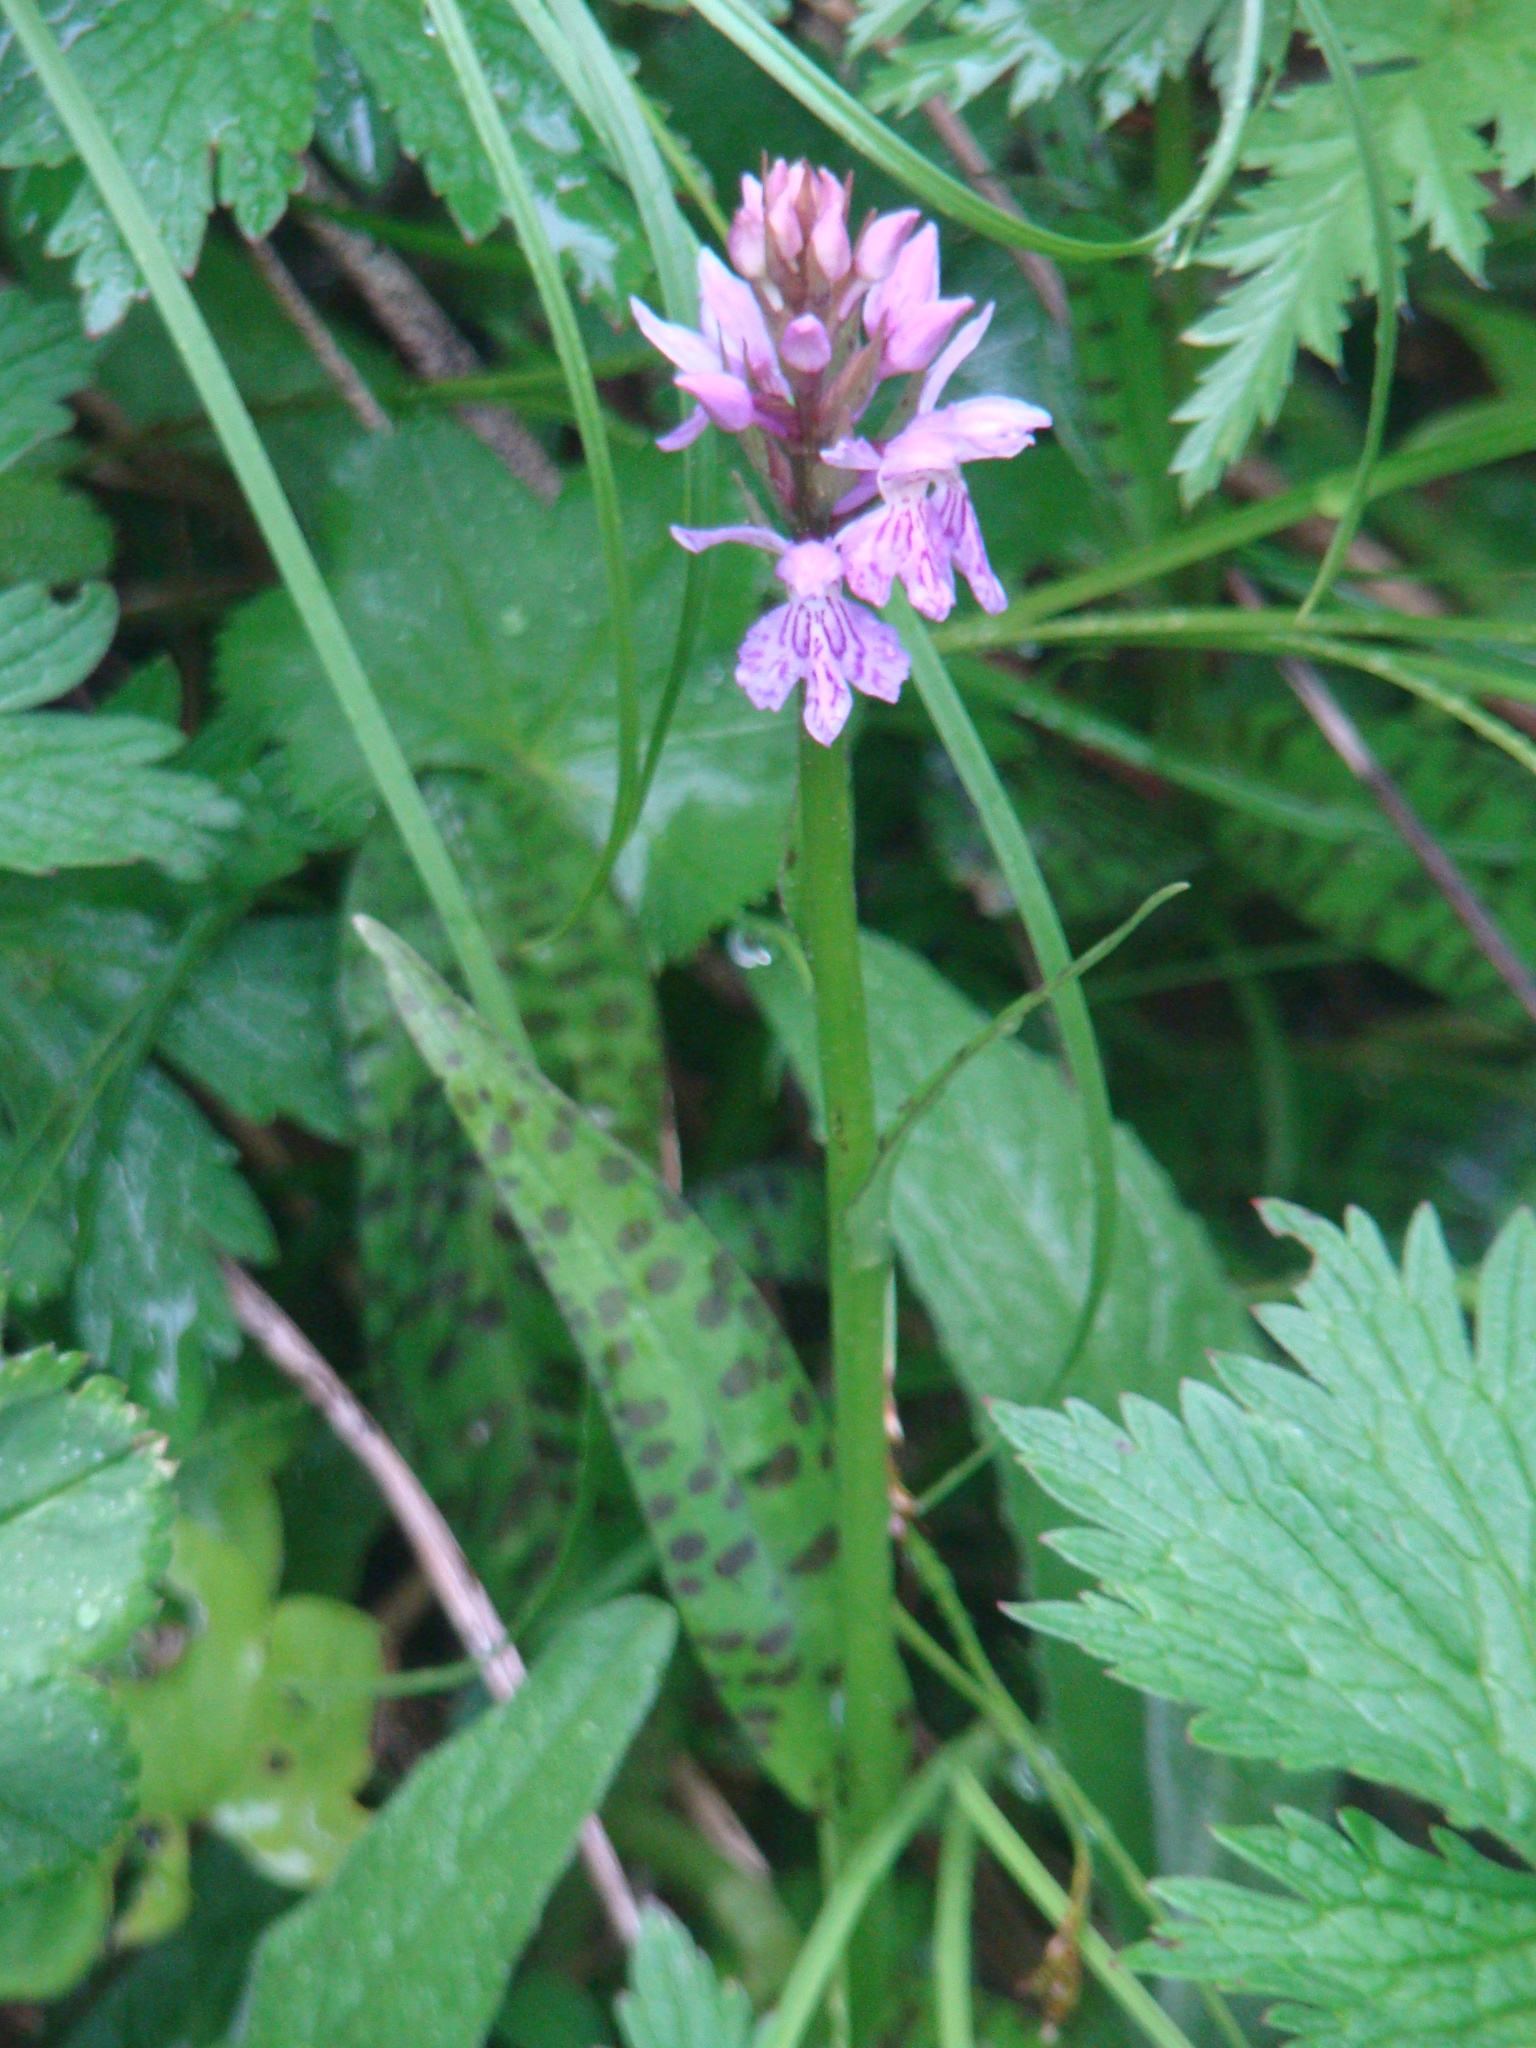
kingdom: Plantae
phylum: Tracheophyta
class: Liliopsida
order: Asparagales
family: Orchidaceae
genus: Dactylorhiza
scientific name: Dactylorhiza maculata
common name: Heath spotted-orchid
